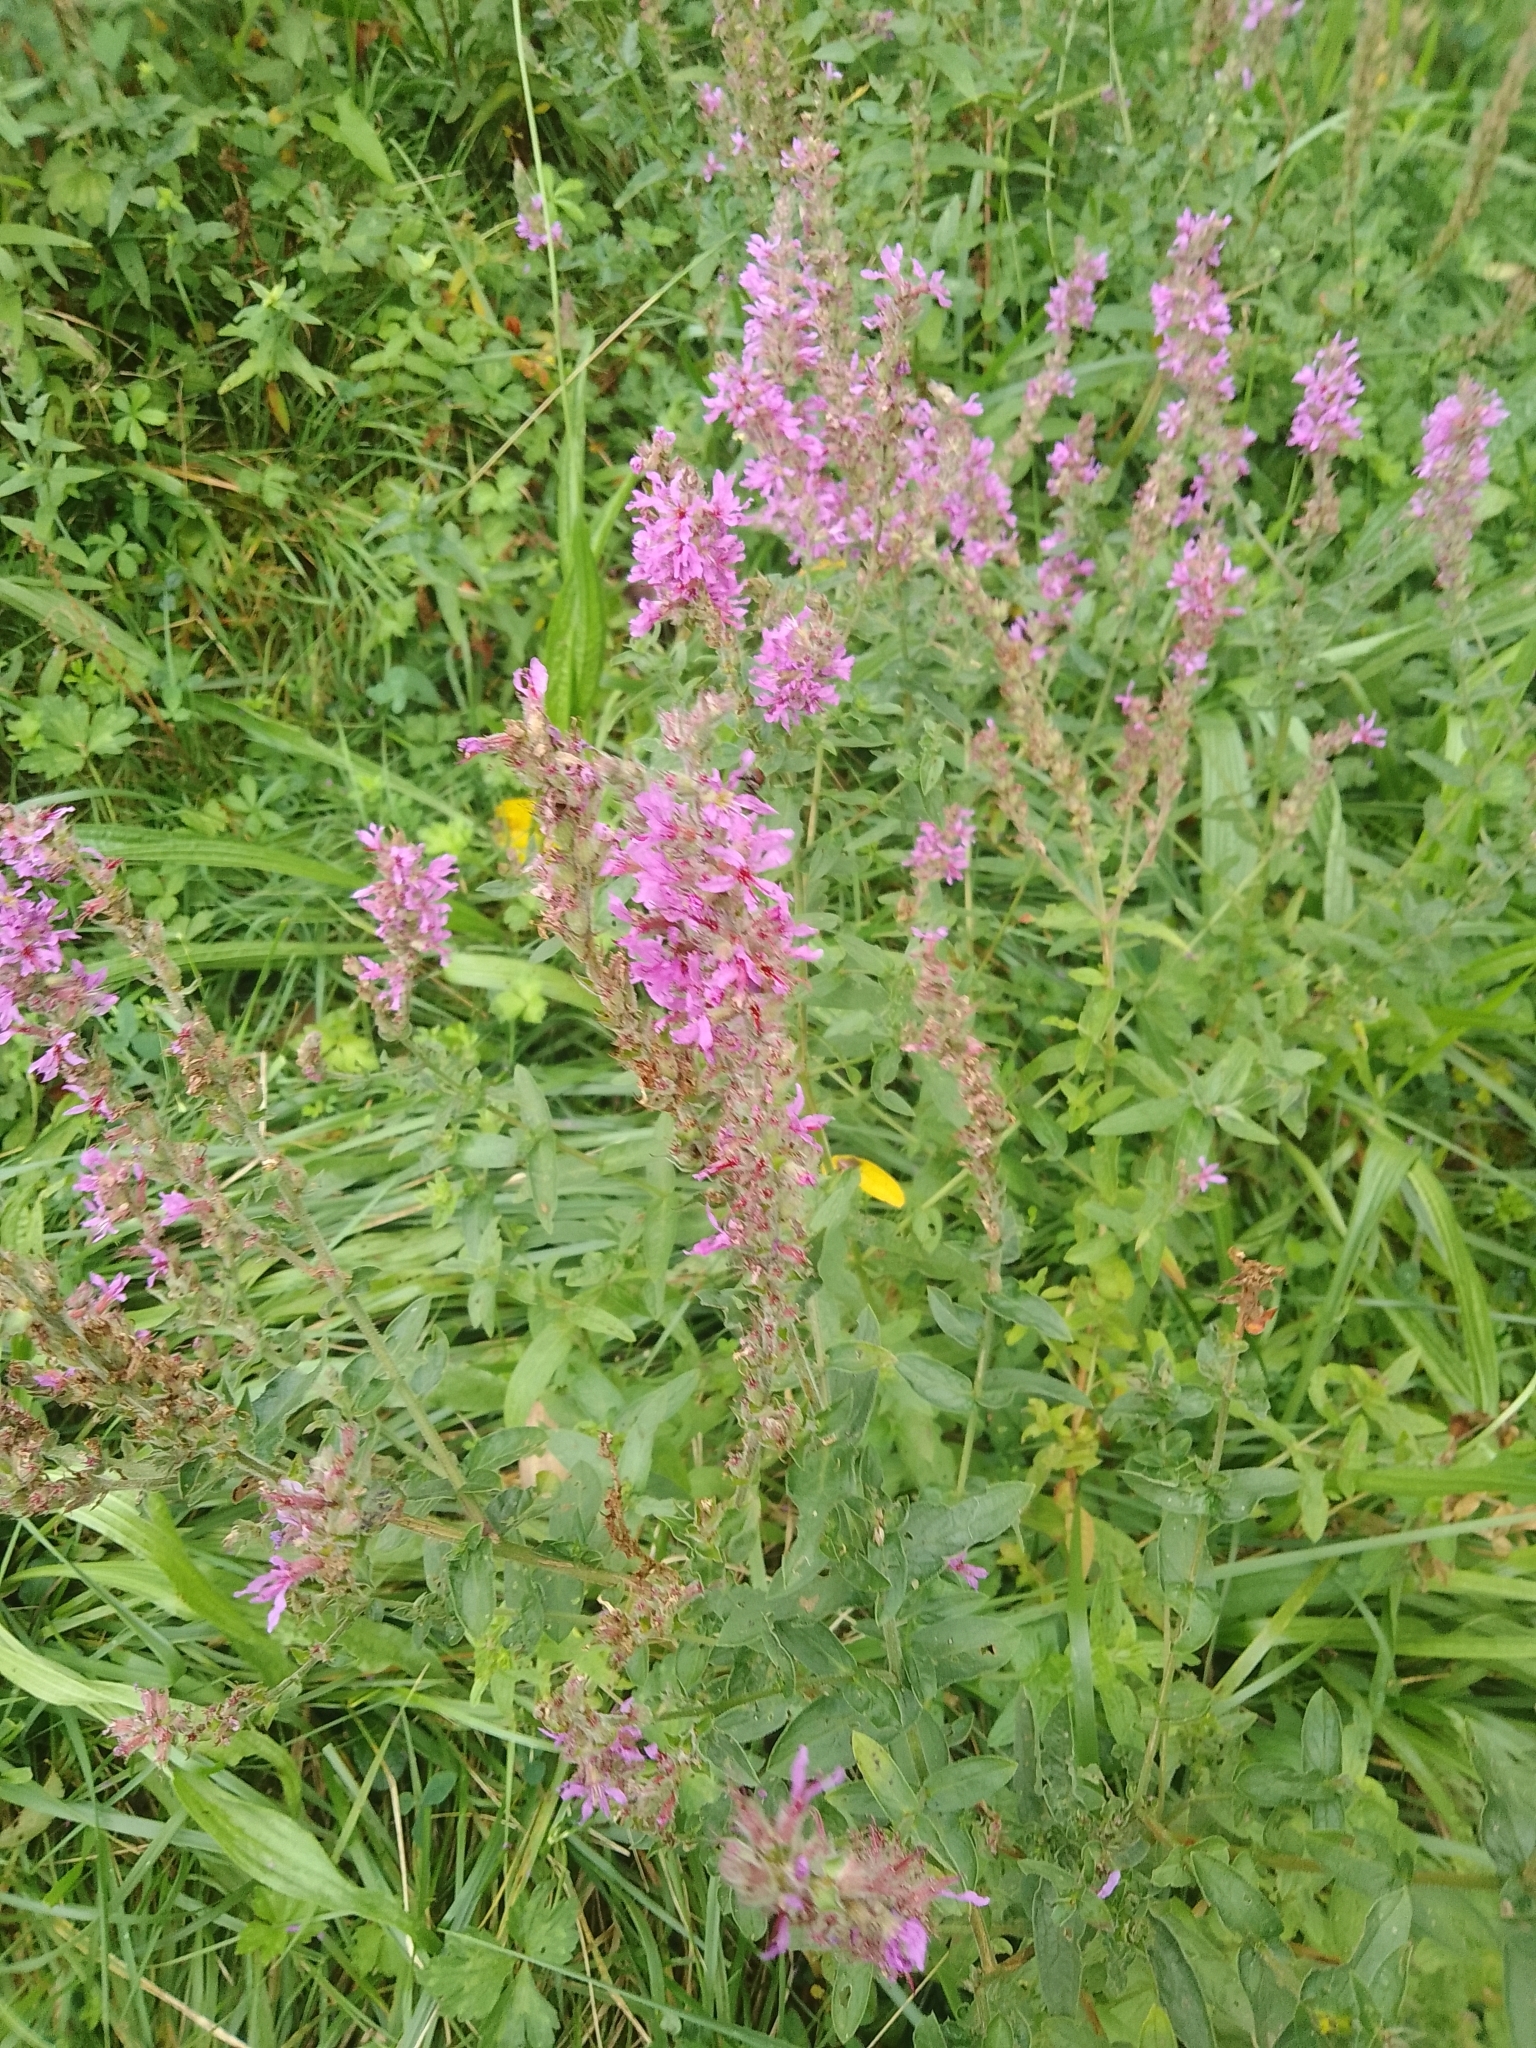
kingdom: Plantae
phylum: Tracheophyta
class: Magnoliopsida
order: Myrtales
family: Lythraceae
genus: Lythrum
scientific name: Lythrum salicaria
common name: Purple loosestrife
